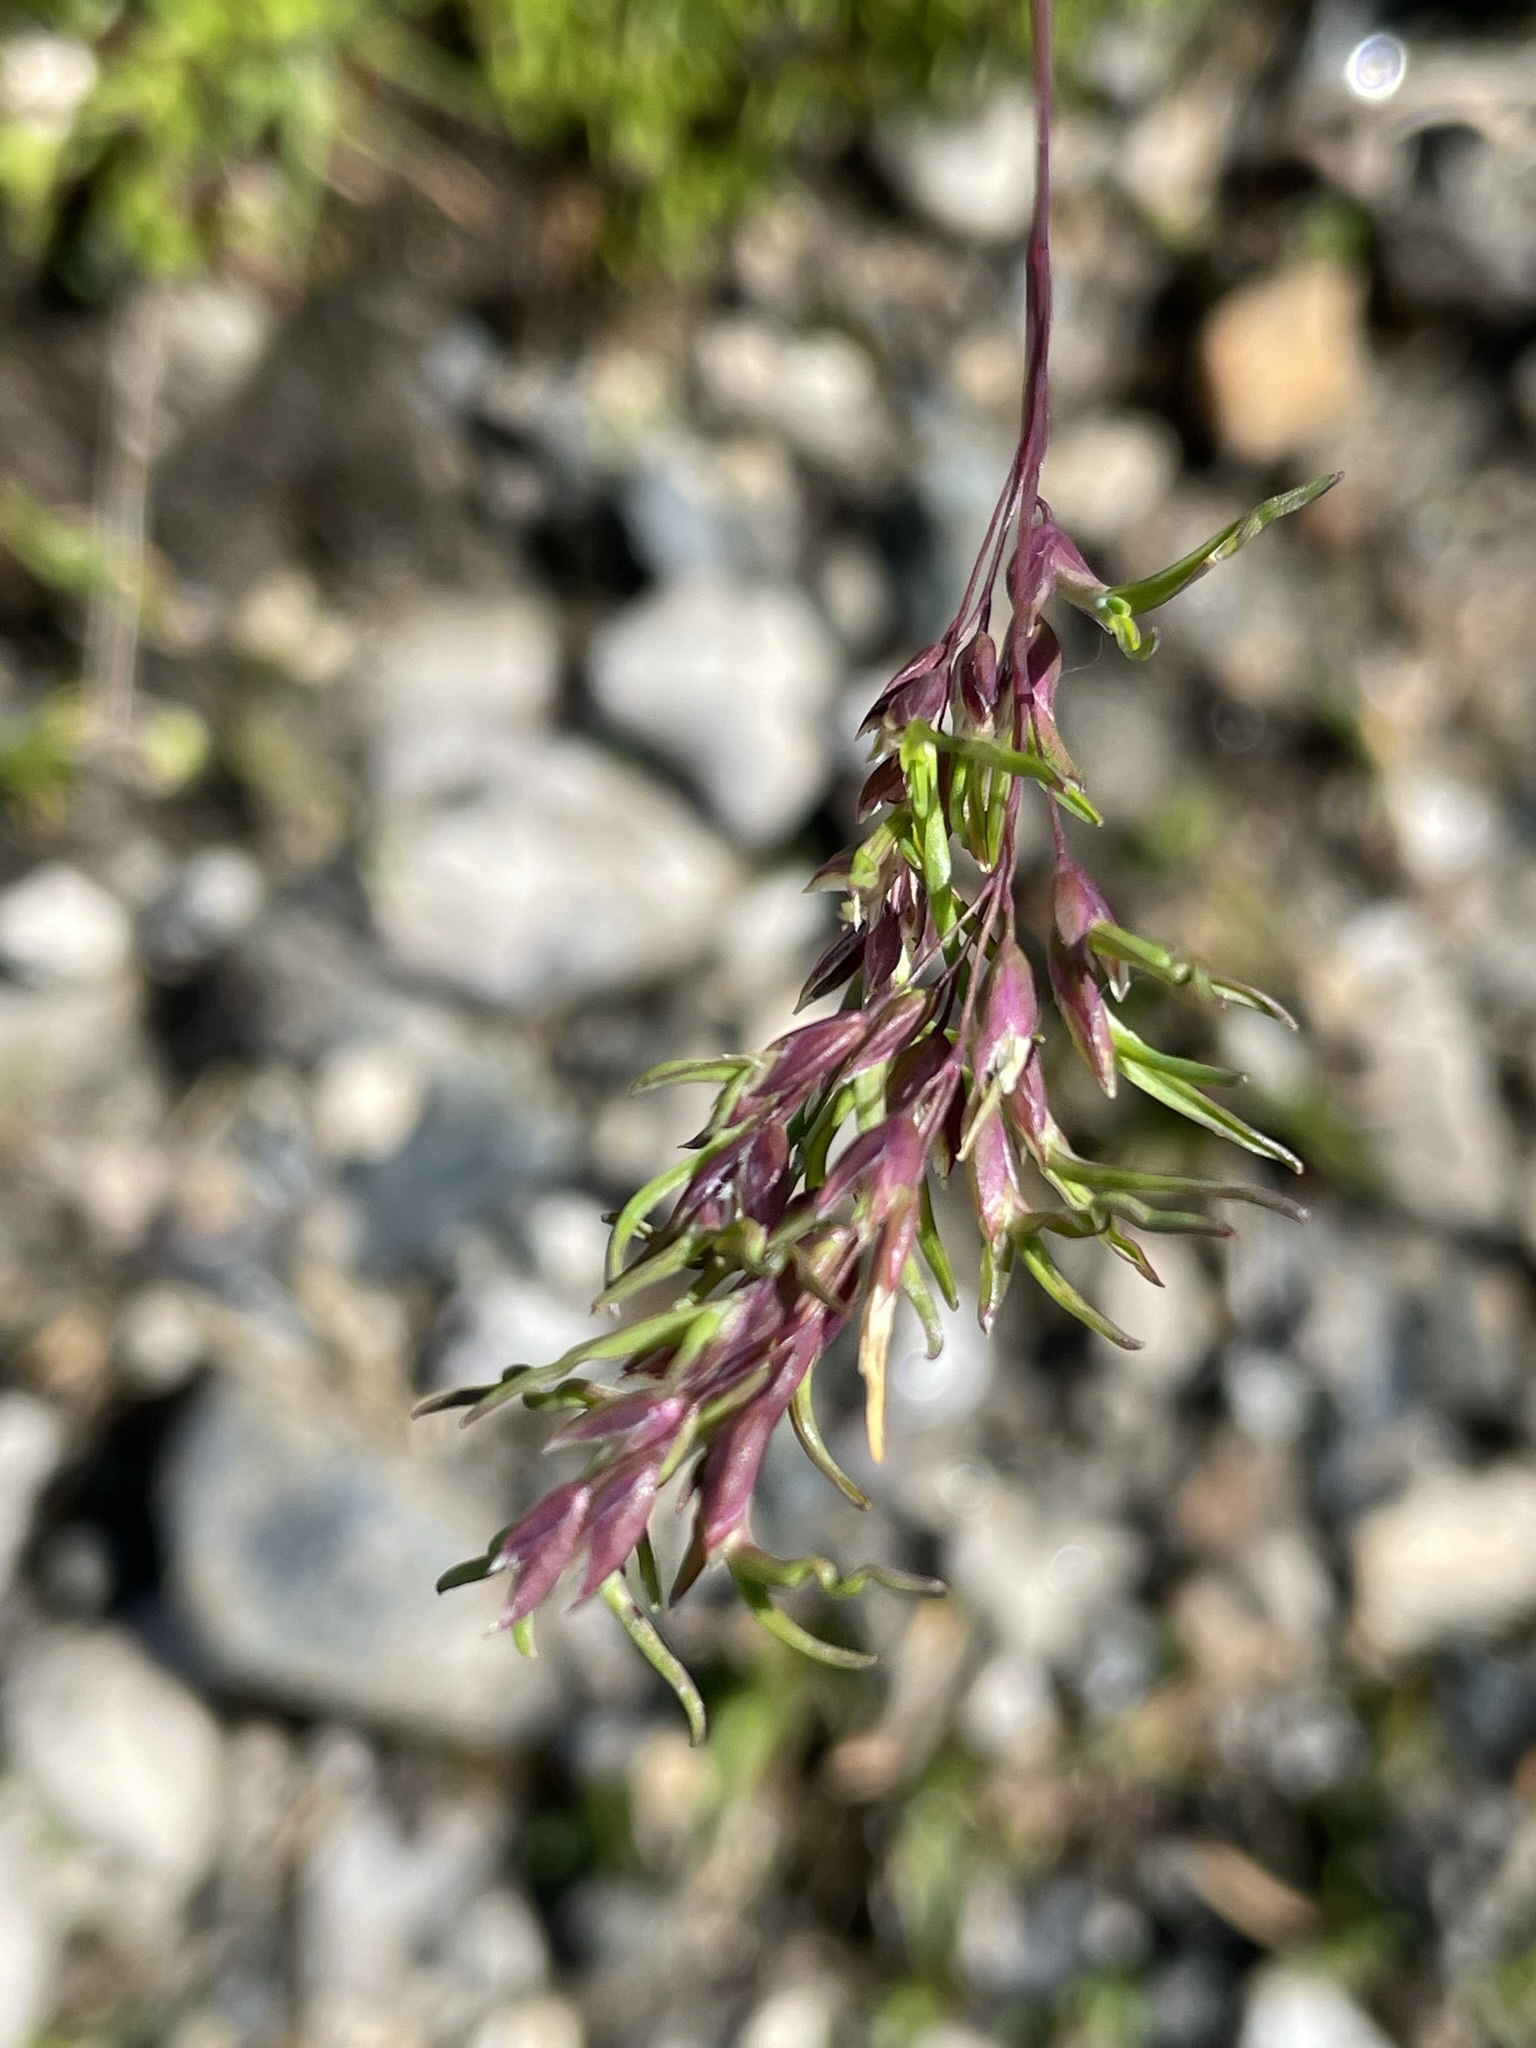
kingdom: Plantae
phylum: Tracheophyta
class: Liliopsida
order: Poales
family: Poaceae
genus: Poa
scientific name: Poa alpina
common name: Alpine bluegrass
